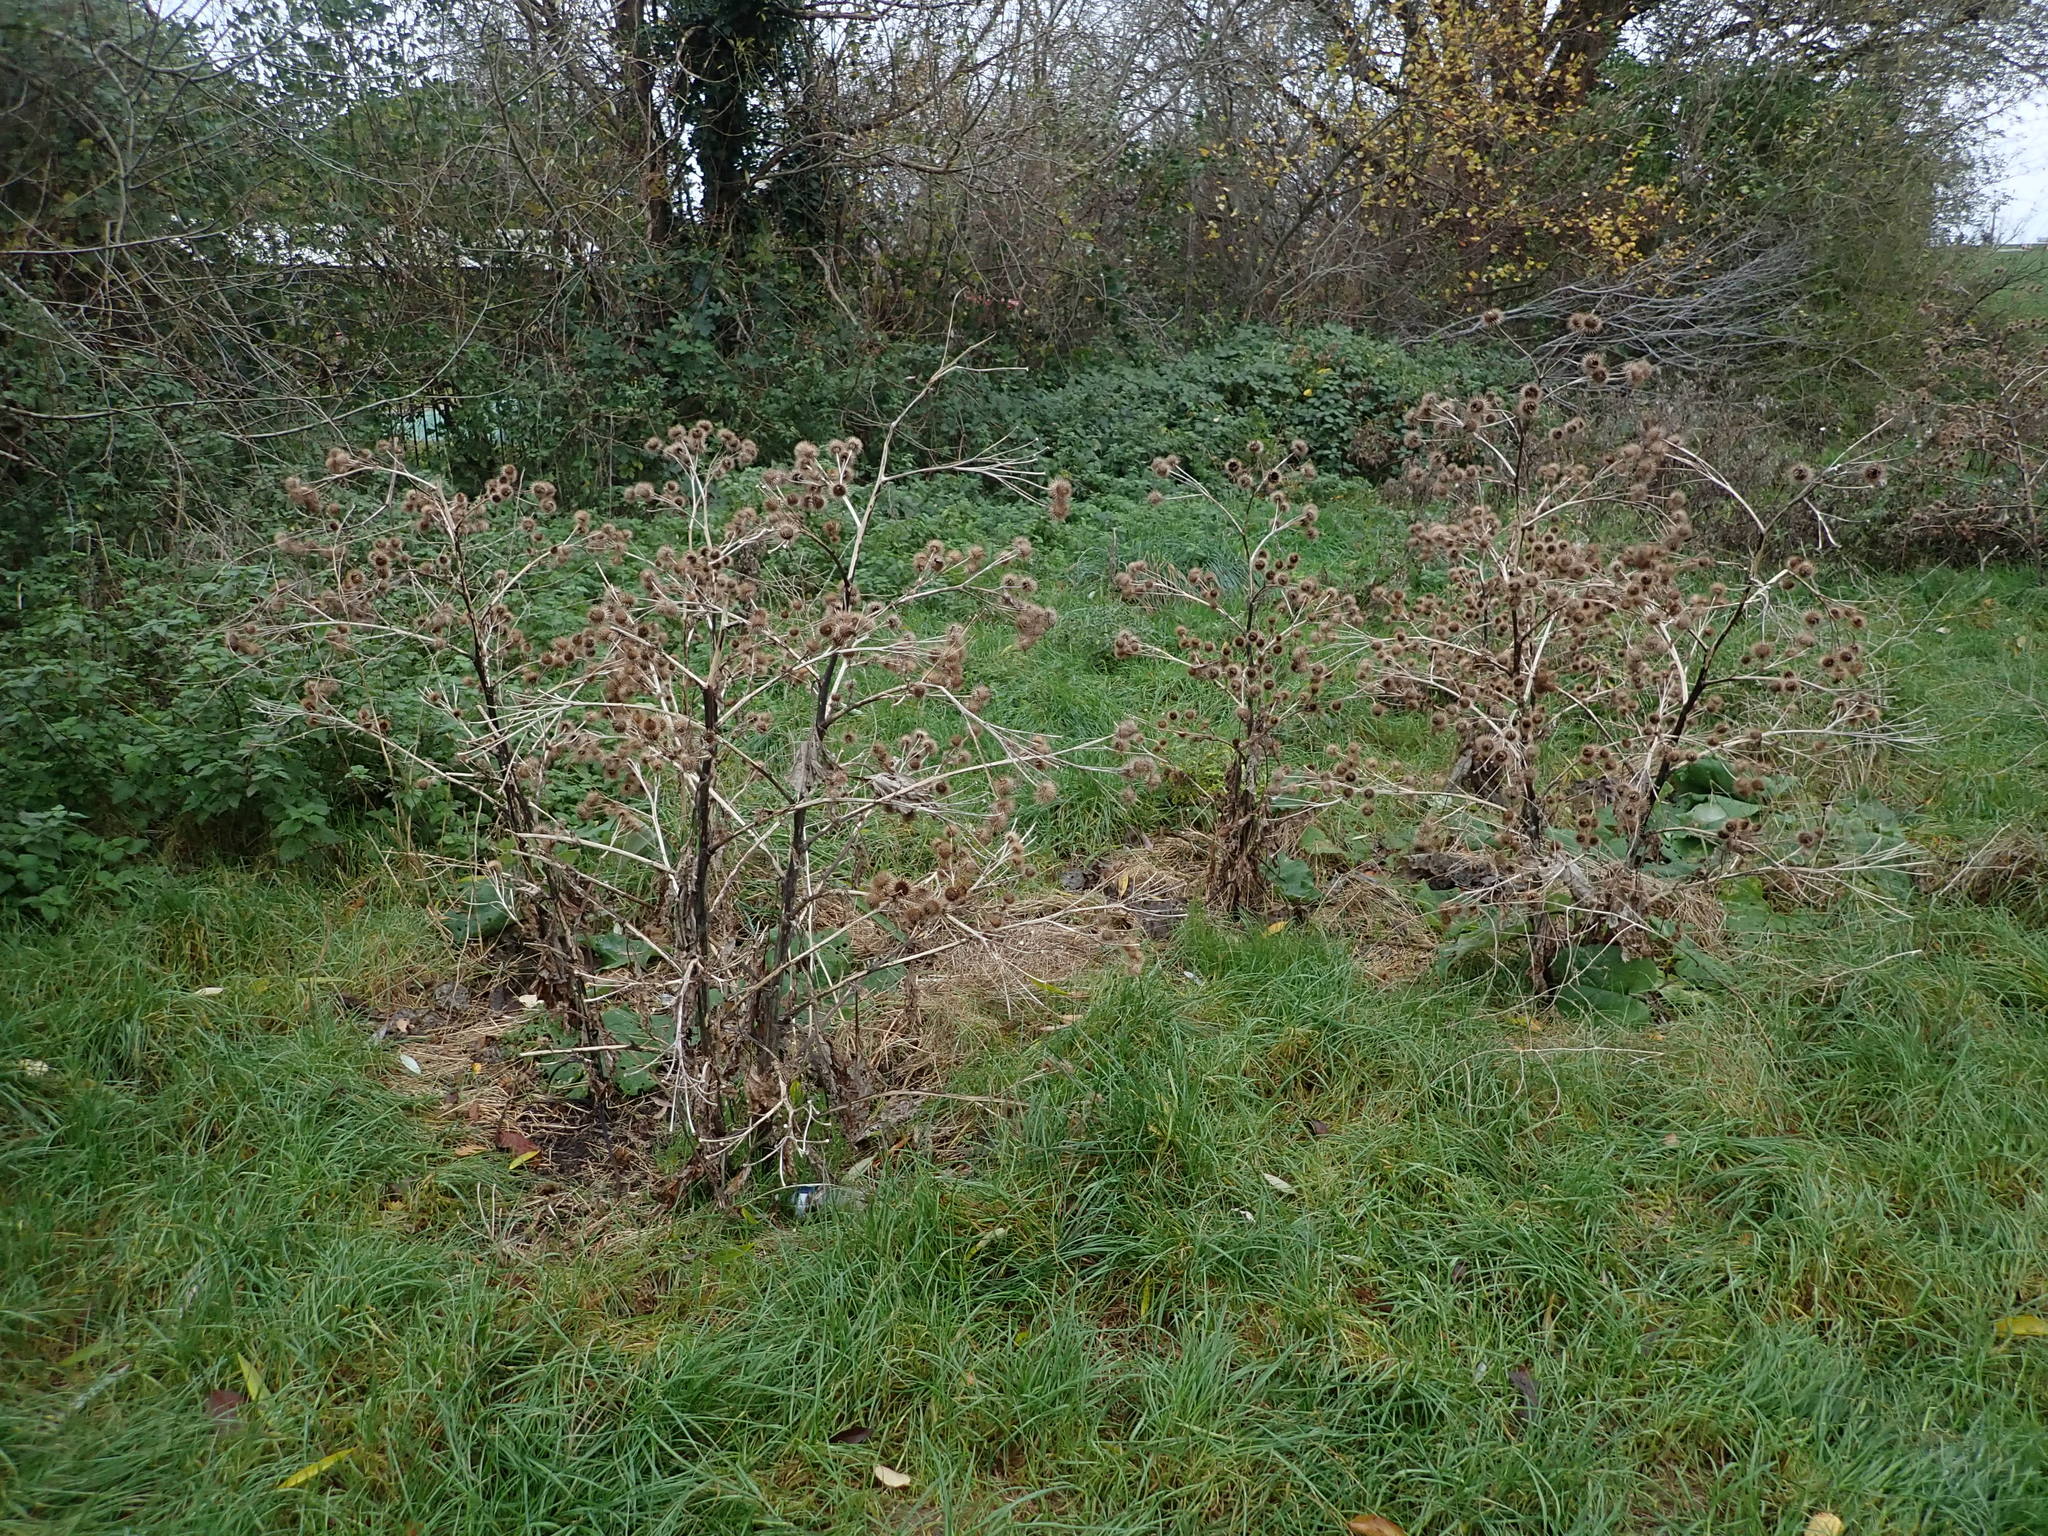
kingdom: Plantae
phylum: Tracheophyta
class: Magnoliopsida
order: Asterales
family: Asteraceae
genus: Arctium
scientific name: Arctium lappa
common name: Greater burdock
